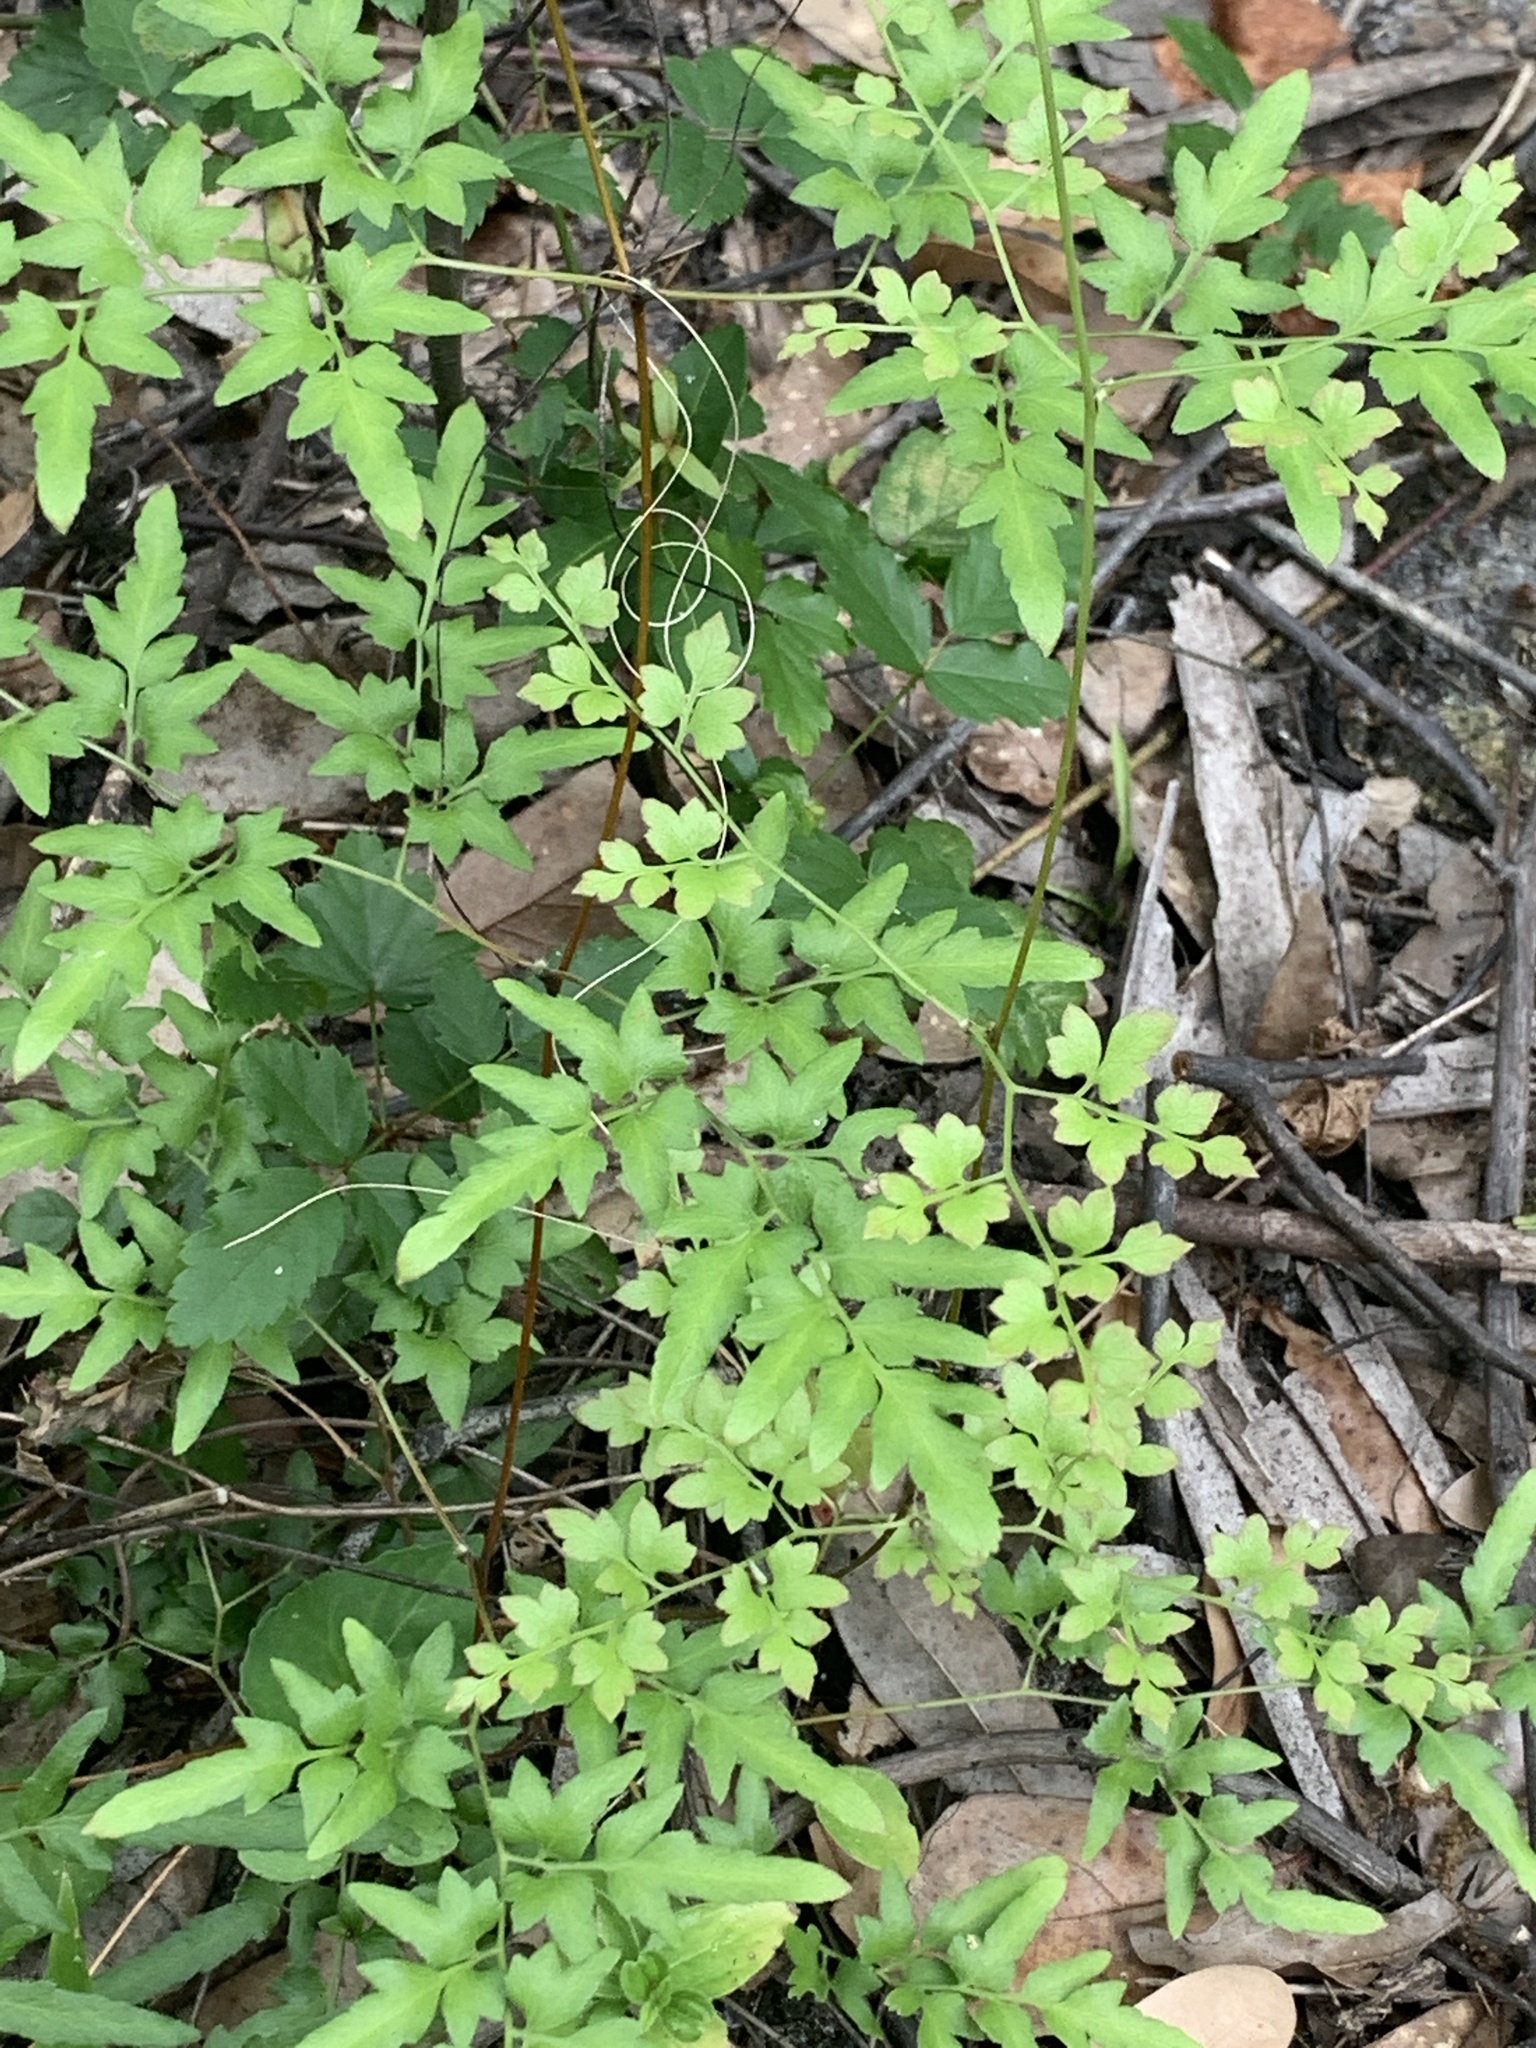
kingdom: Plantae
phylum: Tracheophyta
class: Polypodiopsida
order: Schizaeales
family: Lygodiaceae
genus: Lygodium
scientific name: Lygodium japonicum
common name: Japanese climbing fern
